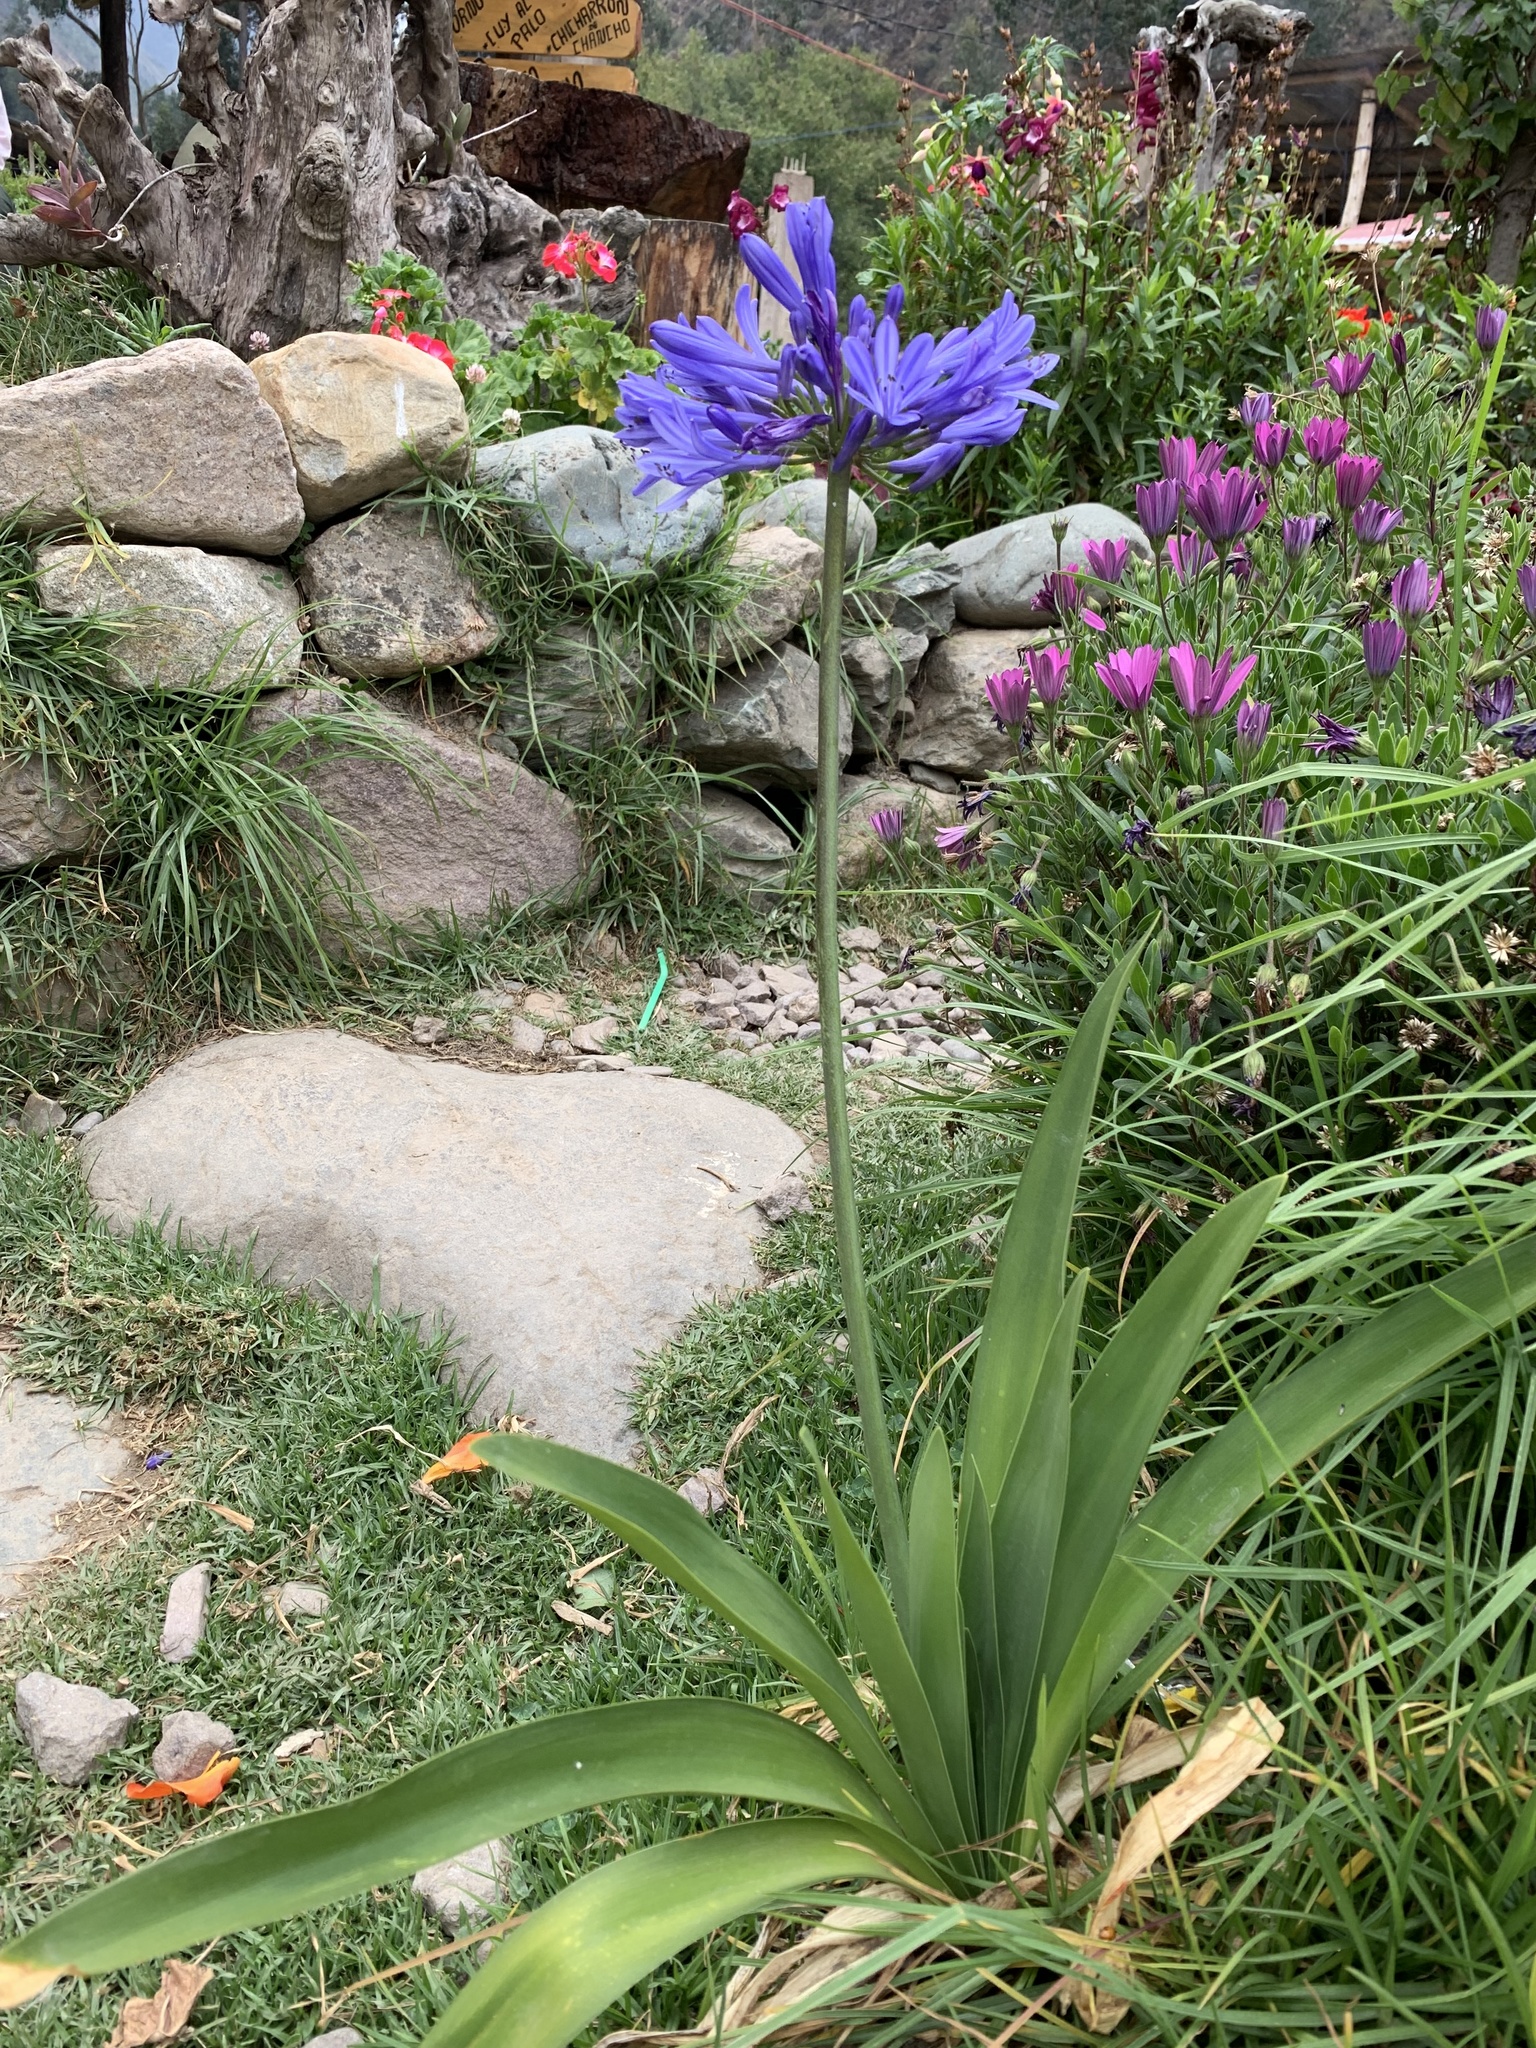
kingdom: Plantae
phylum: Tracheophyta
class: Liliopsida
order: Asparagales
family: Amaryllidaceae
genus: Agapanthus
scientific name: Agapanthus praecox
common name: African-lily
